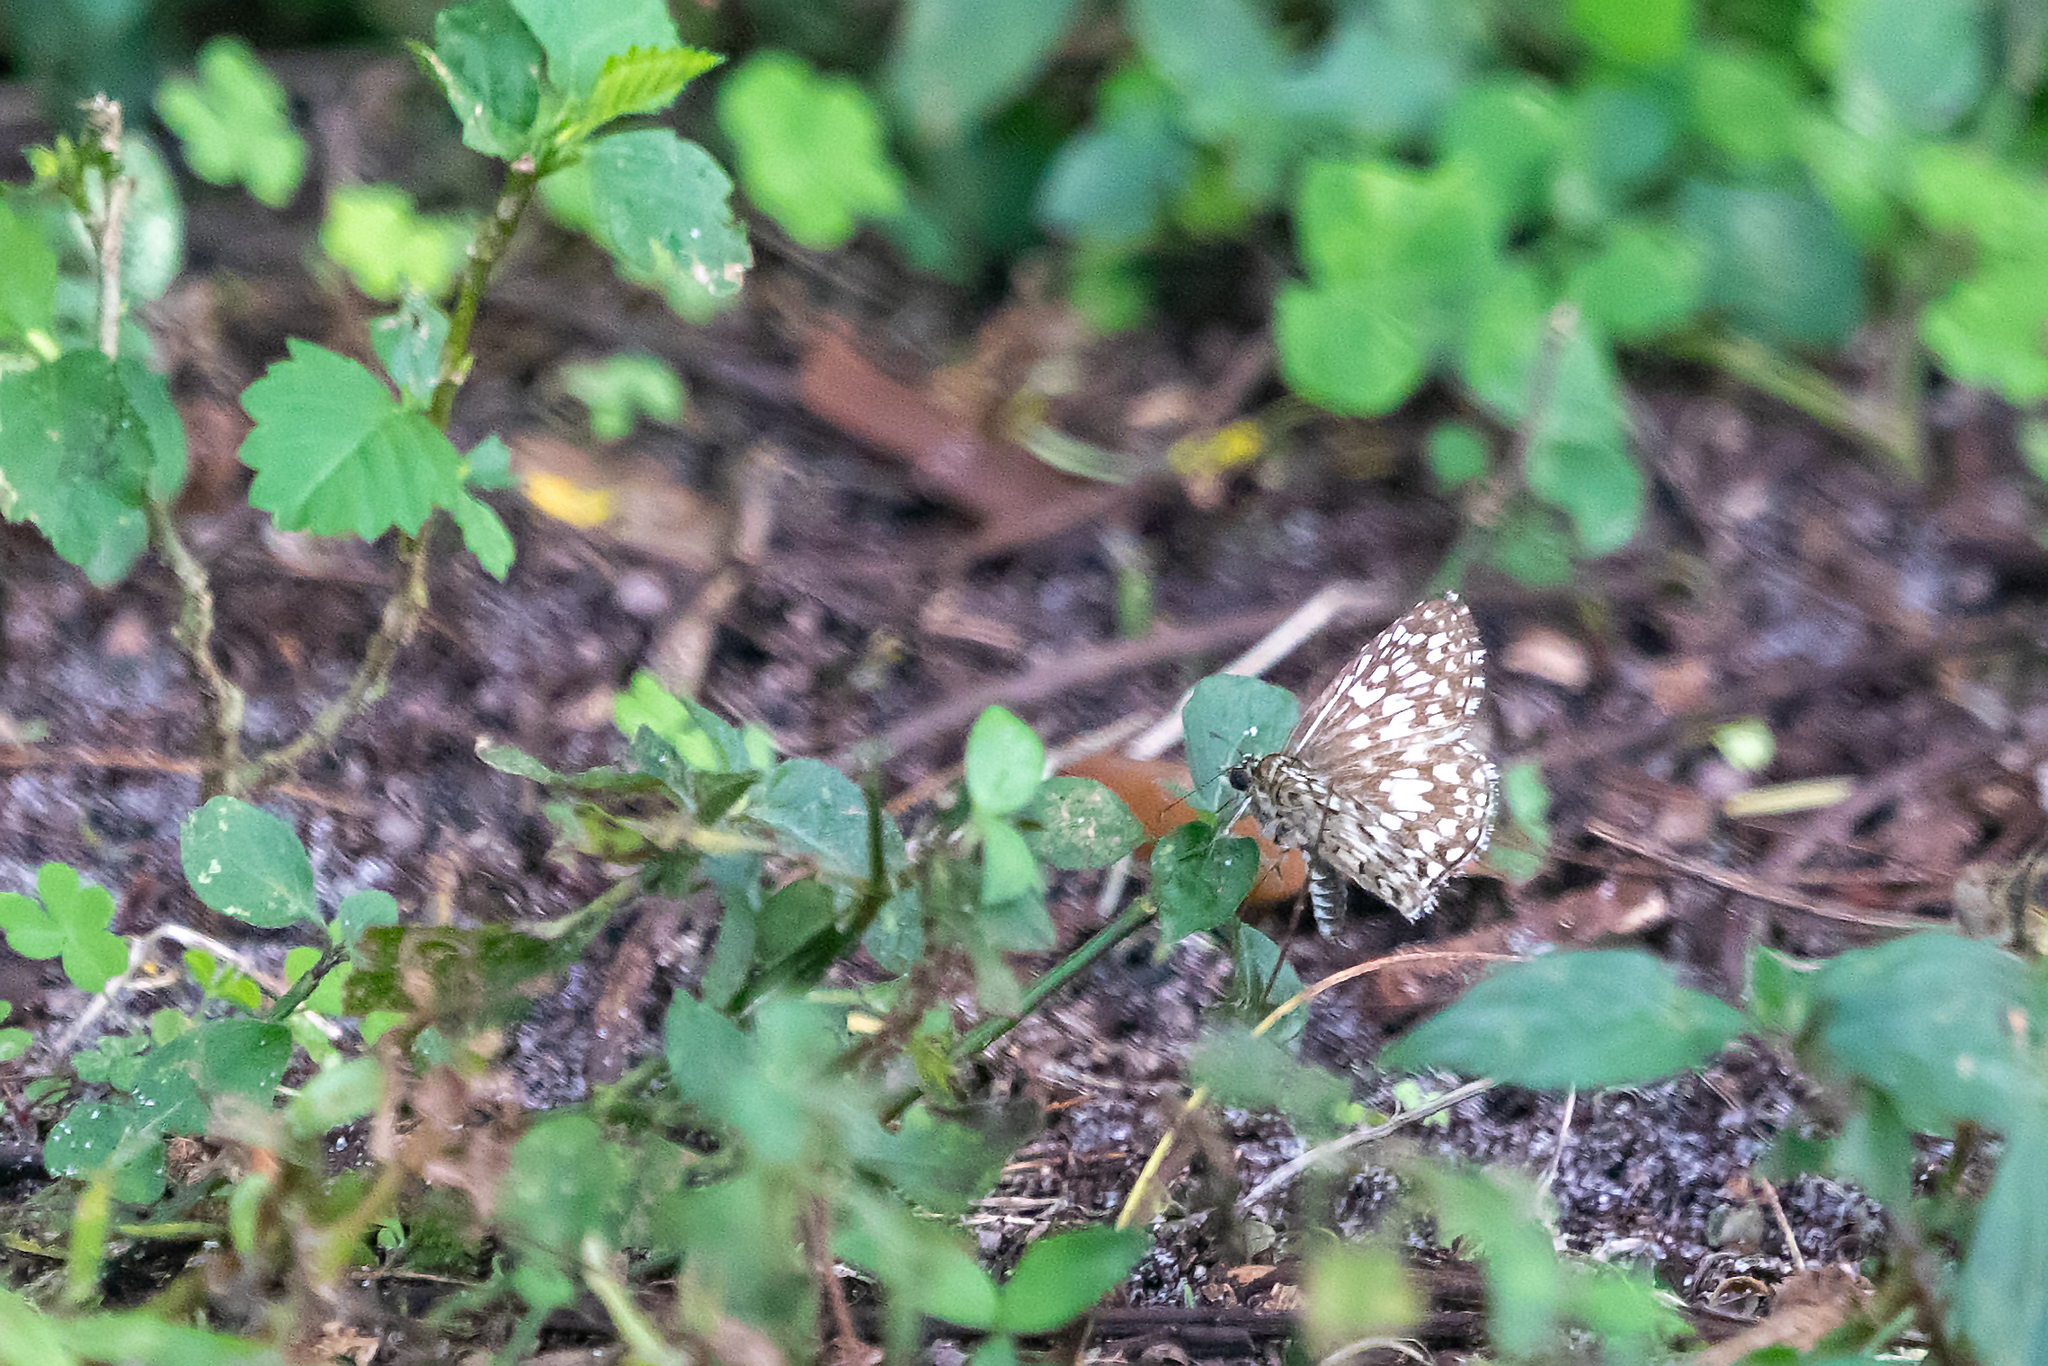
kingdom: Animalia
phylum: Arthropoda
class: Insecta
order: Lepidoptera
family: Hesperiidae
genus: Pyrgus
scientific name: Pyrgus oileus
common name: Tropical checkered-skipper
